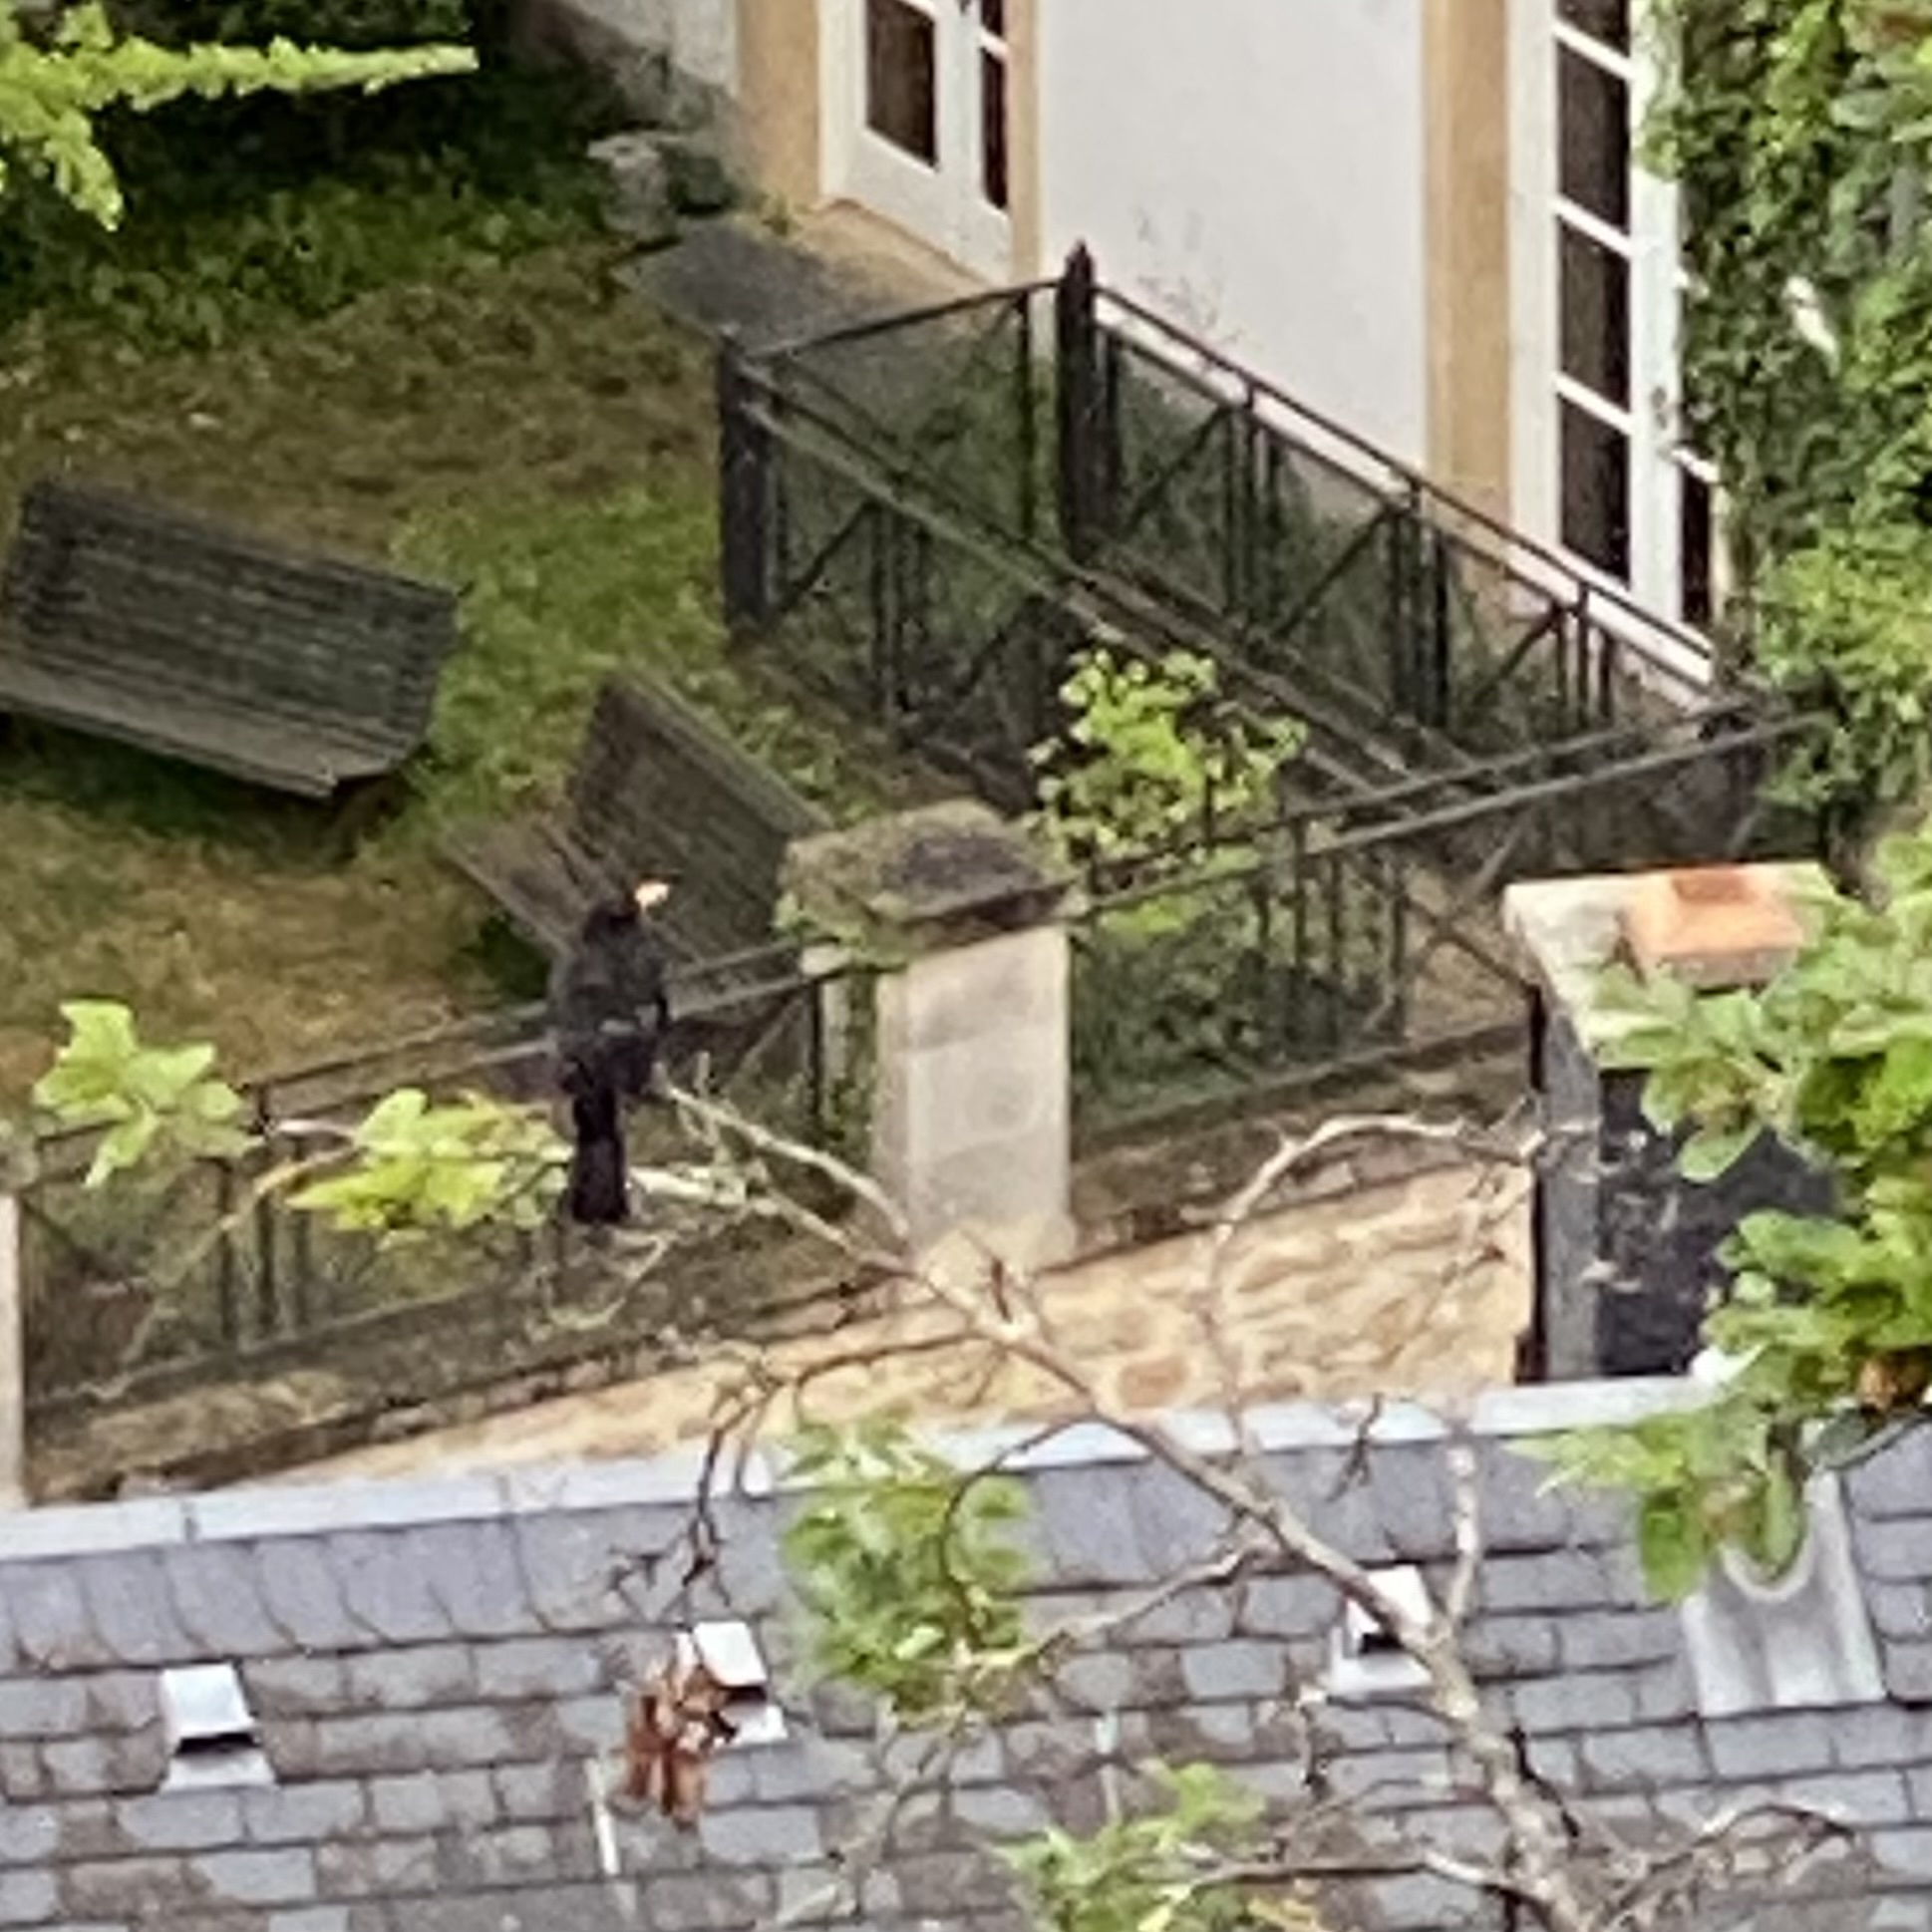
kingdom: Animalia
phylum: Chordata
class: Aves
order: Passeriformes
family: Turdidae
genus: Turdus
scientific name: Turdus merula
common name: Common blackbird
